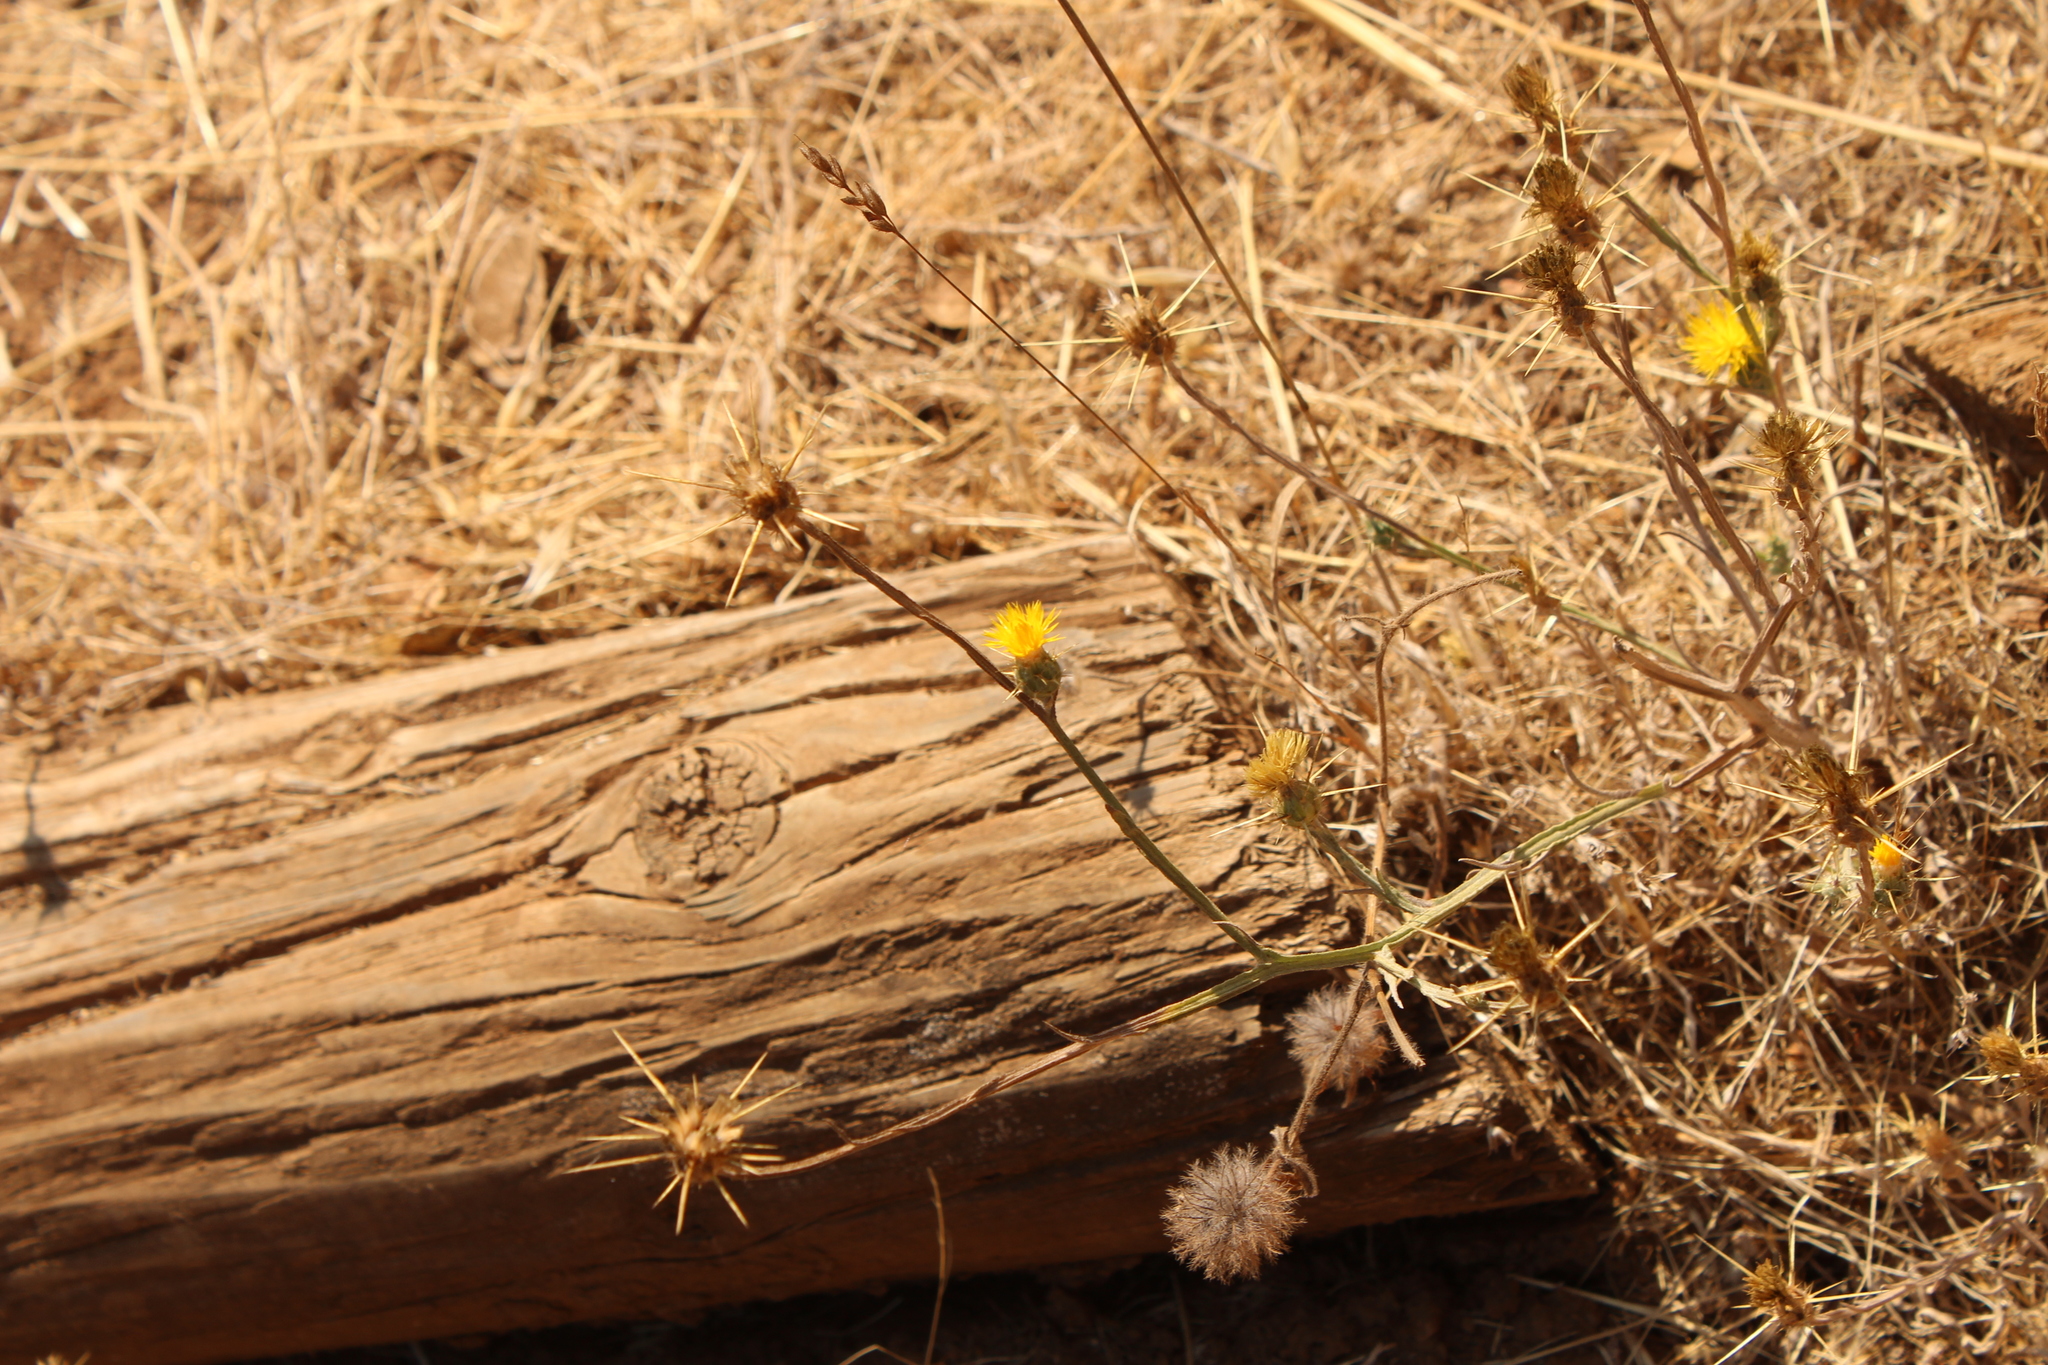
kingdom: Plantae
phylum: Tracheophyta
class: Magnoliopsida
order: Asterales
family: Asteraceae
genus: Centaurea
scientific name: Centaurea solstitialis
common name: Yellow star-thistle
